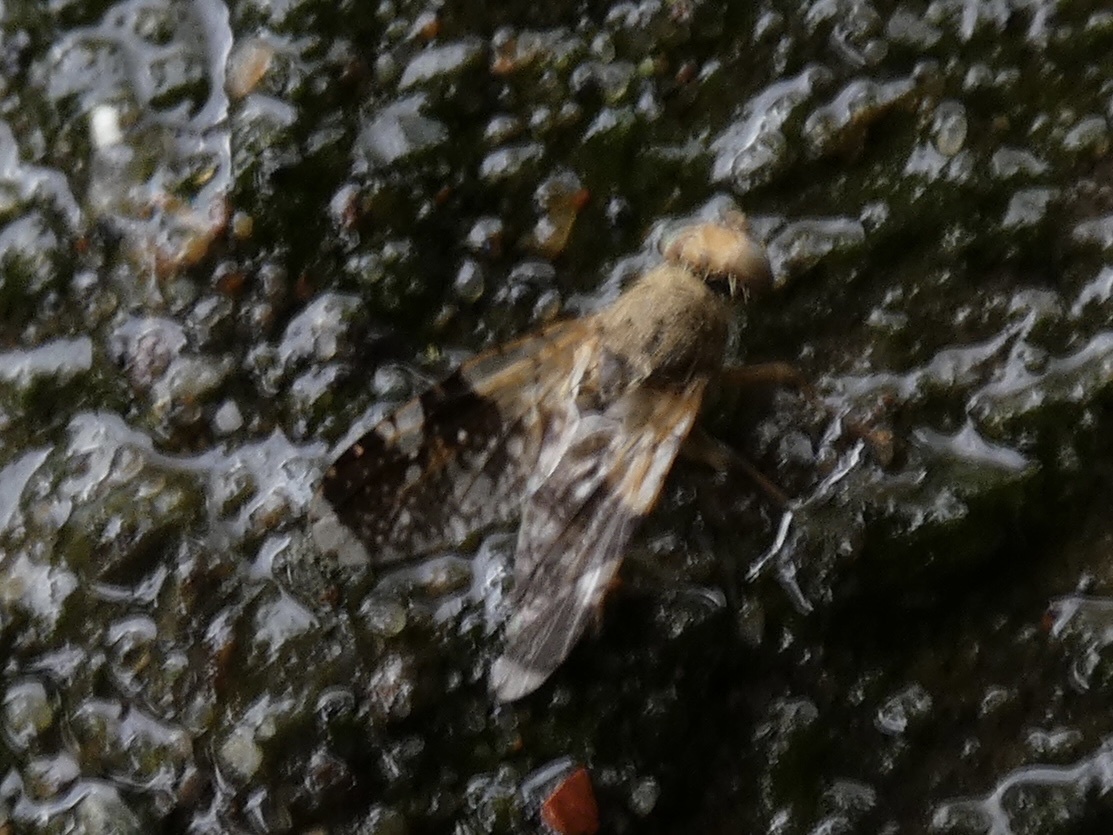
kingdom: Animalia
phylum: Arthropoda
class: Insecta
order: Diptera
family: Tephritidae
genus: Tephritis
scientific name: Tephritis formosa
